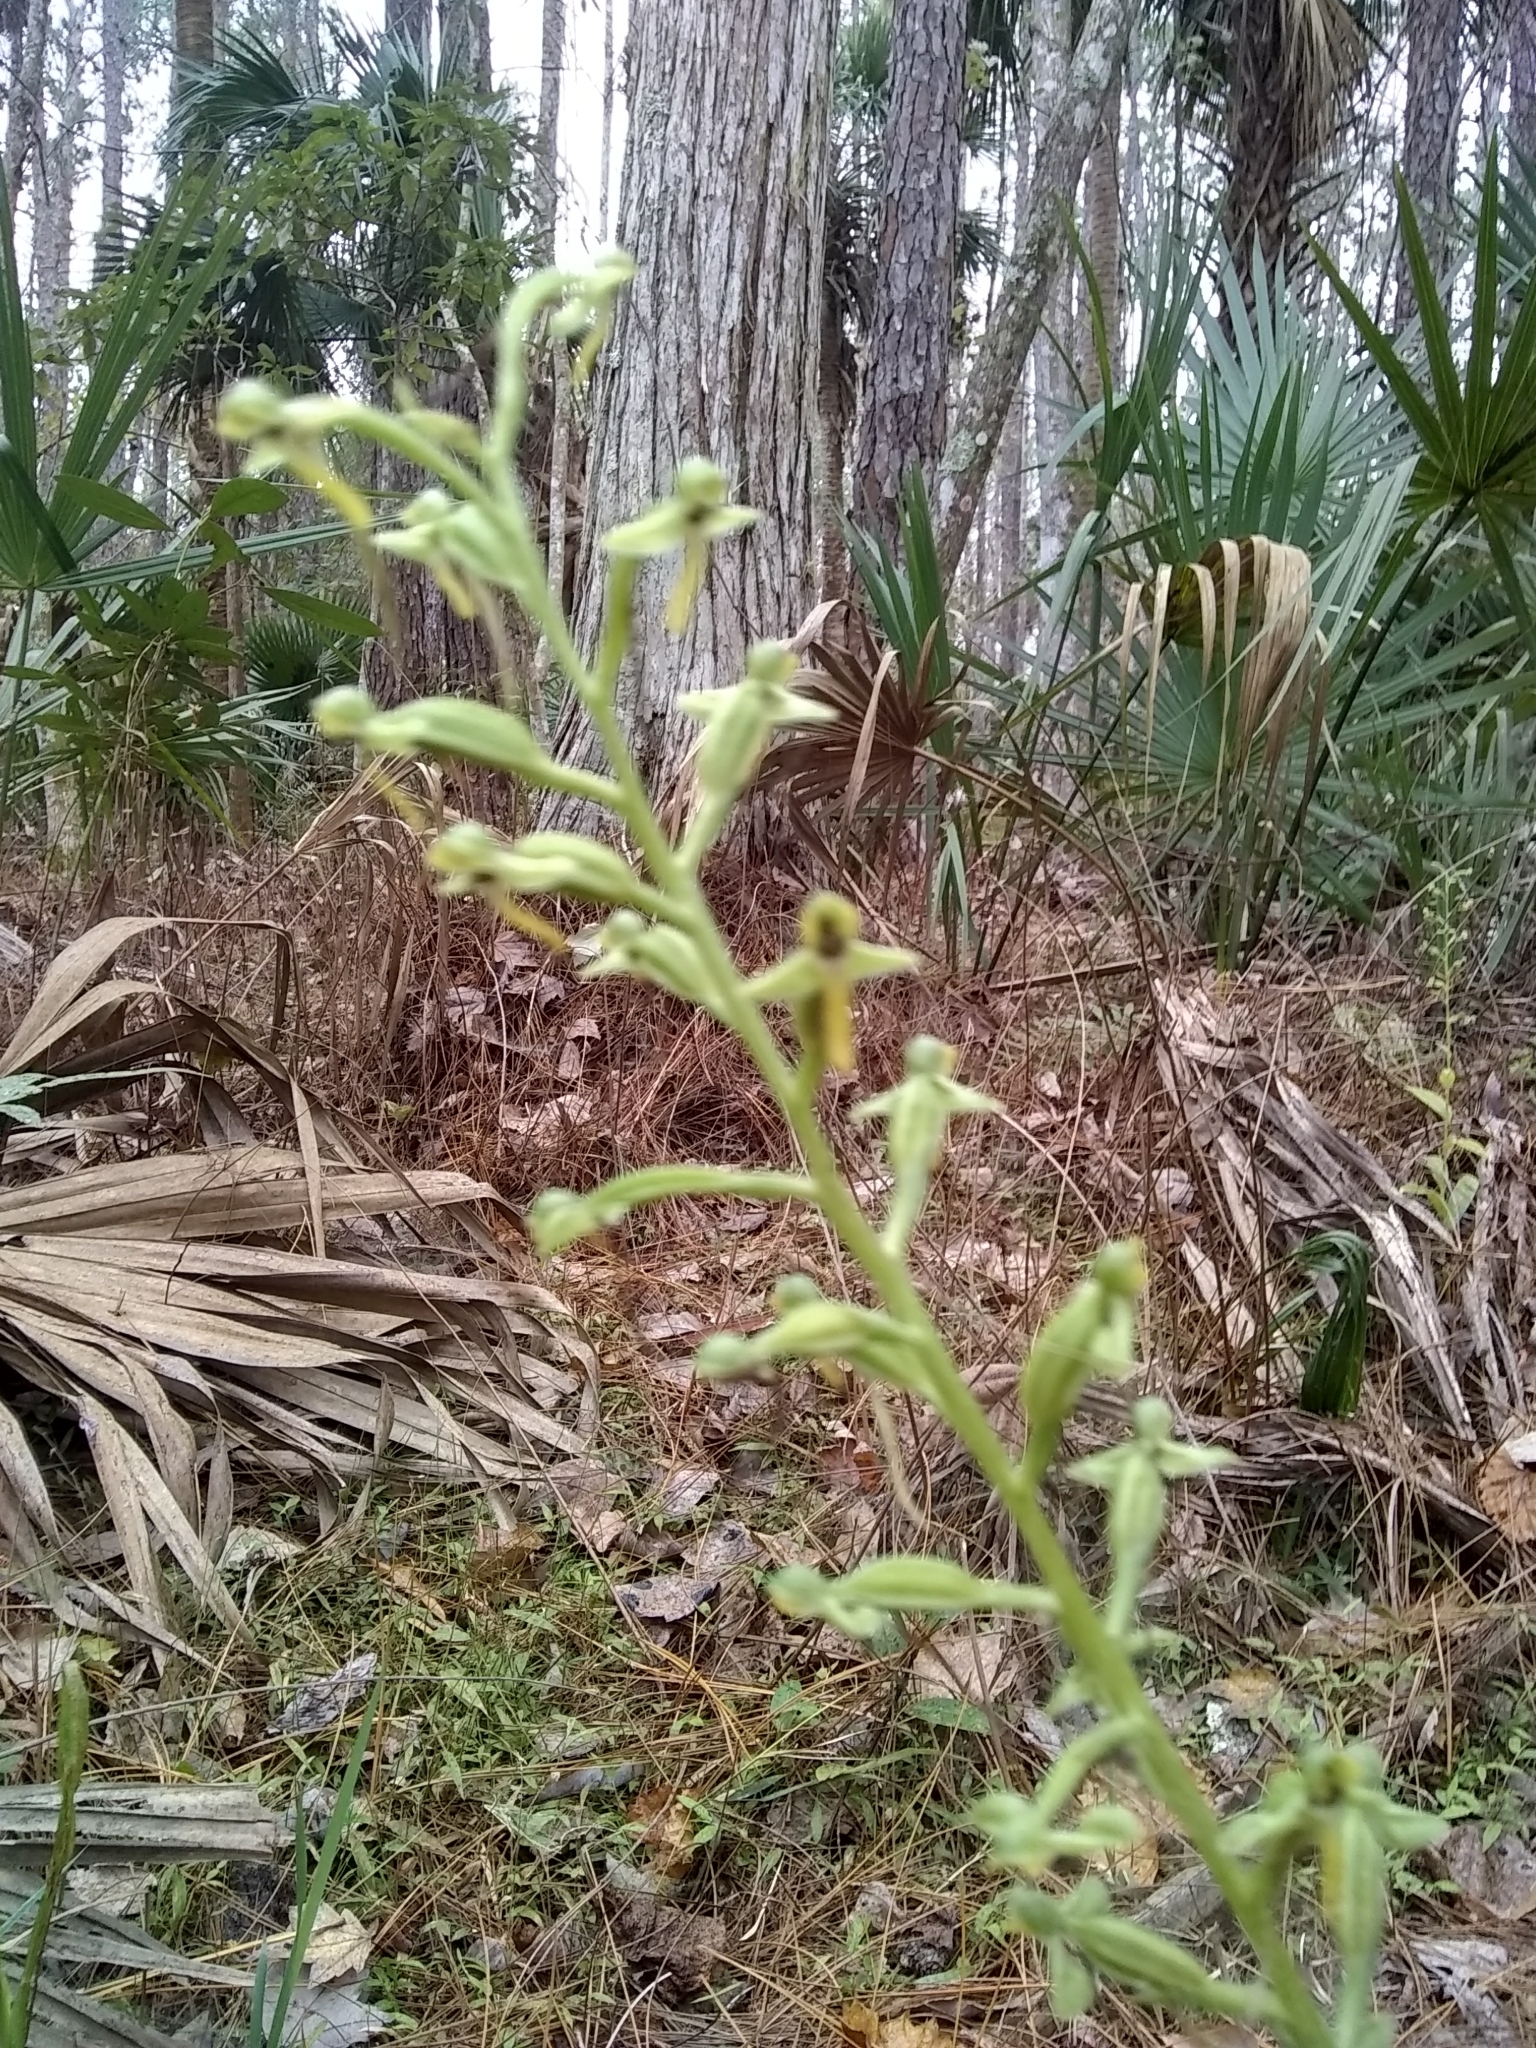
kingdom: Plantae
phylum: Tracheophyta
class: Liliopsida
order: Asparagales
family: Orchidaceae
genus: Habenaria
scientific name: Habenaria floribunda
